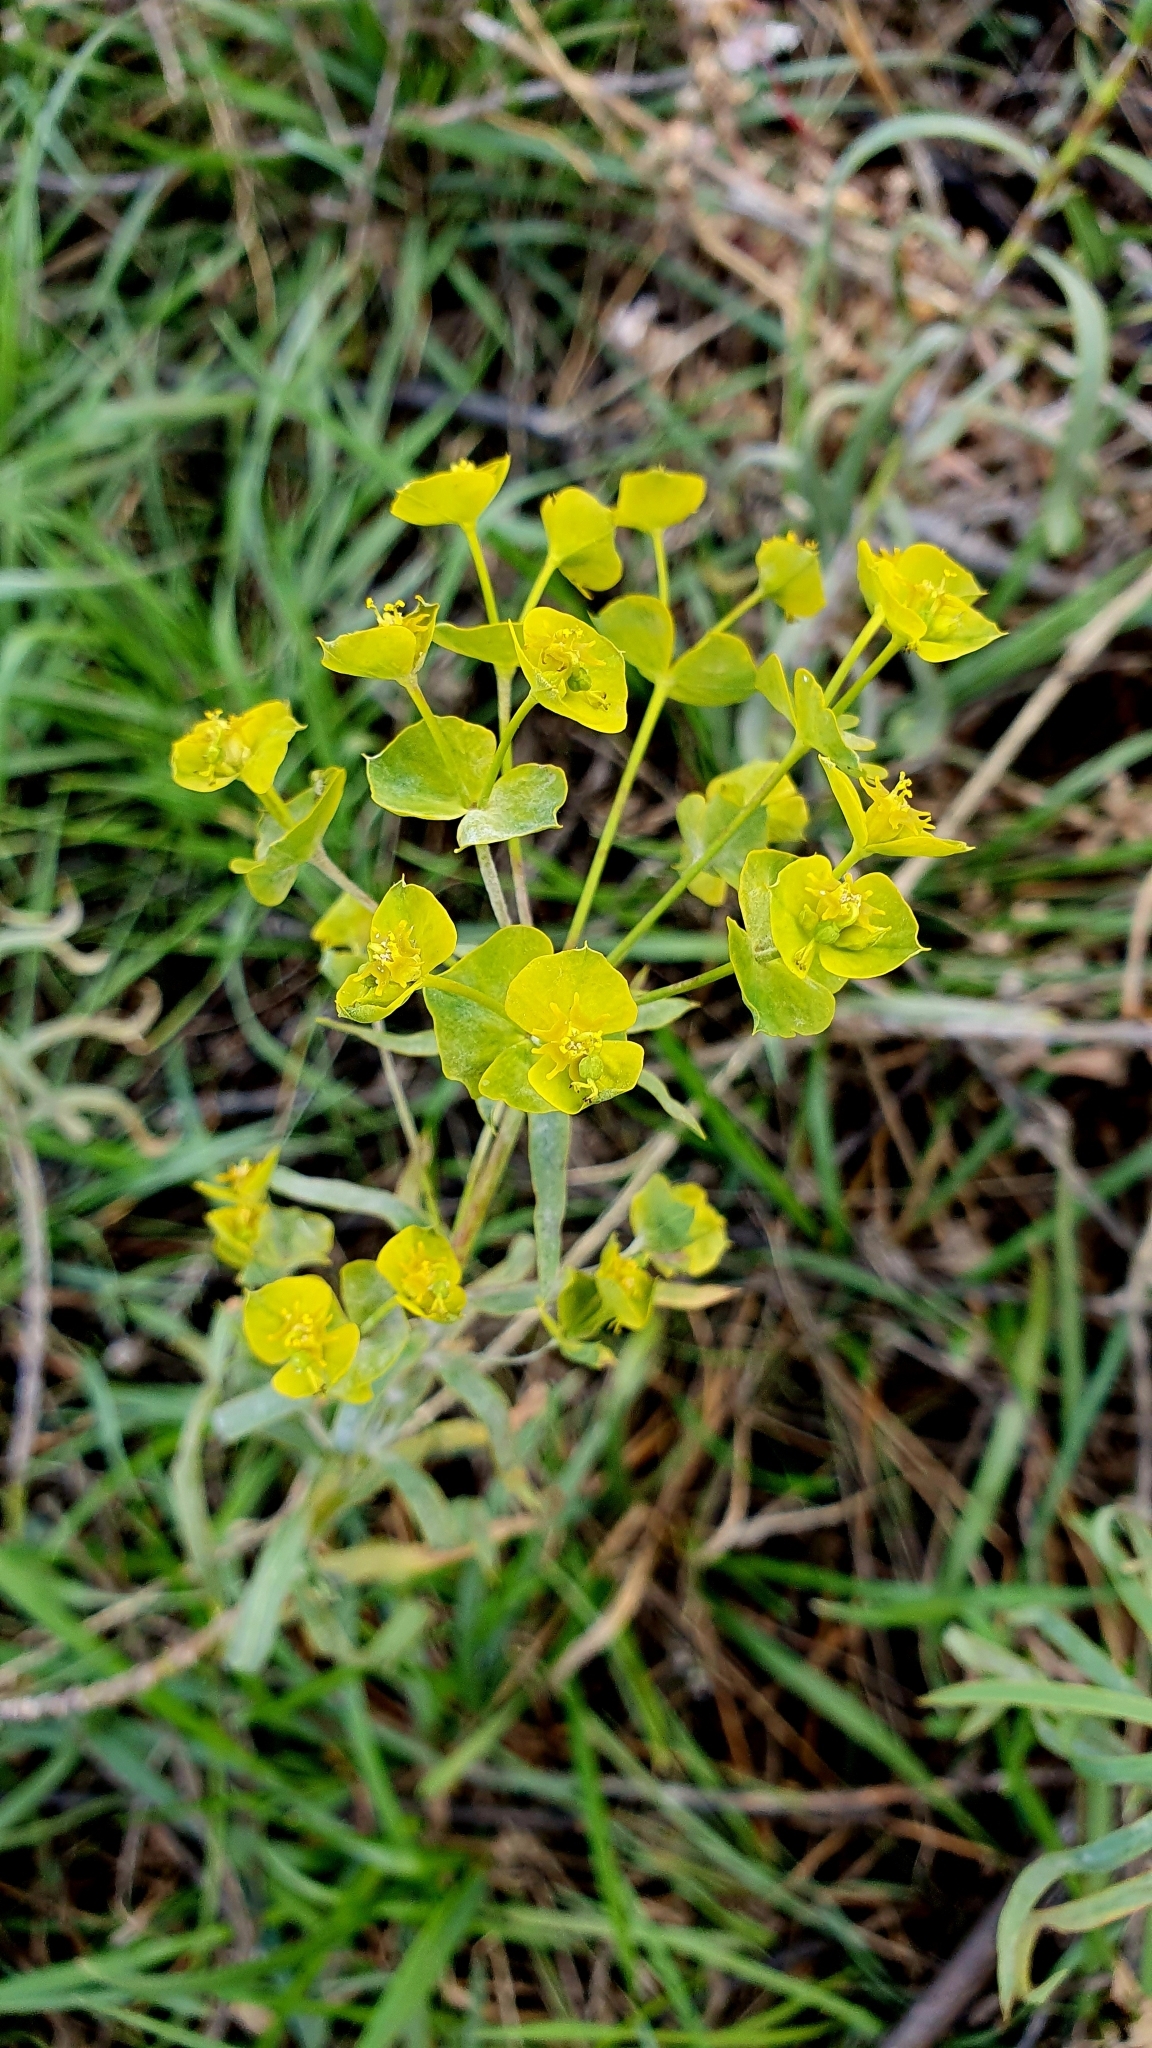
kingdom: Plantae
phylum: Tracheophyta
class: Magnoliopsida
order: Malpighiales
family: Euphorbiaceae
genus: Euphorbia
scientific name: Euphorbia virgata
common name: Leafy spurge
